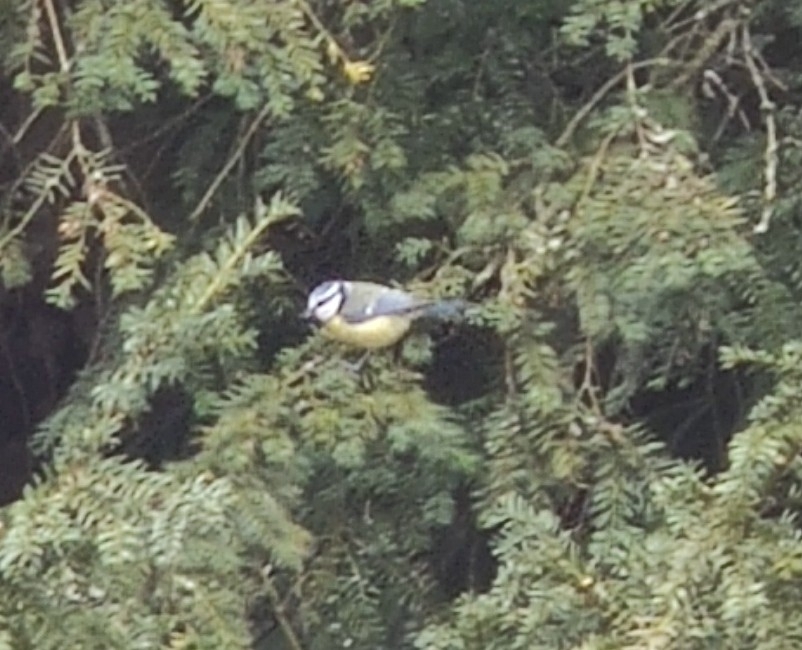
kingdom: Animalia
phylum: Chordata
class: Aves
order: Passeriformes
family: Paridae
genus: Cyanistes
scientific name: Cyanistes caeruleus
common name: Eurasian blue tit
